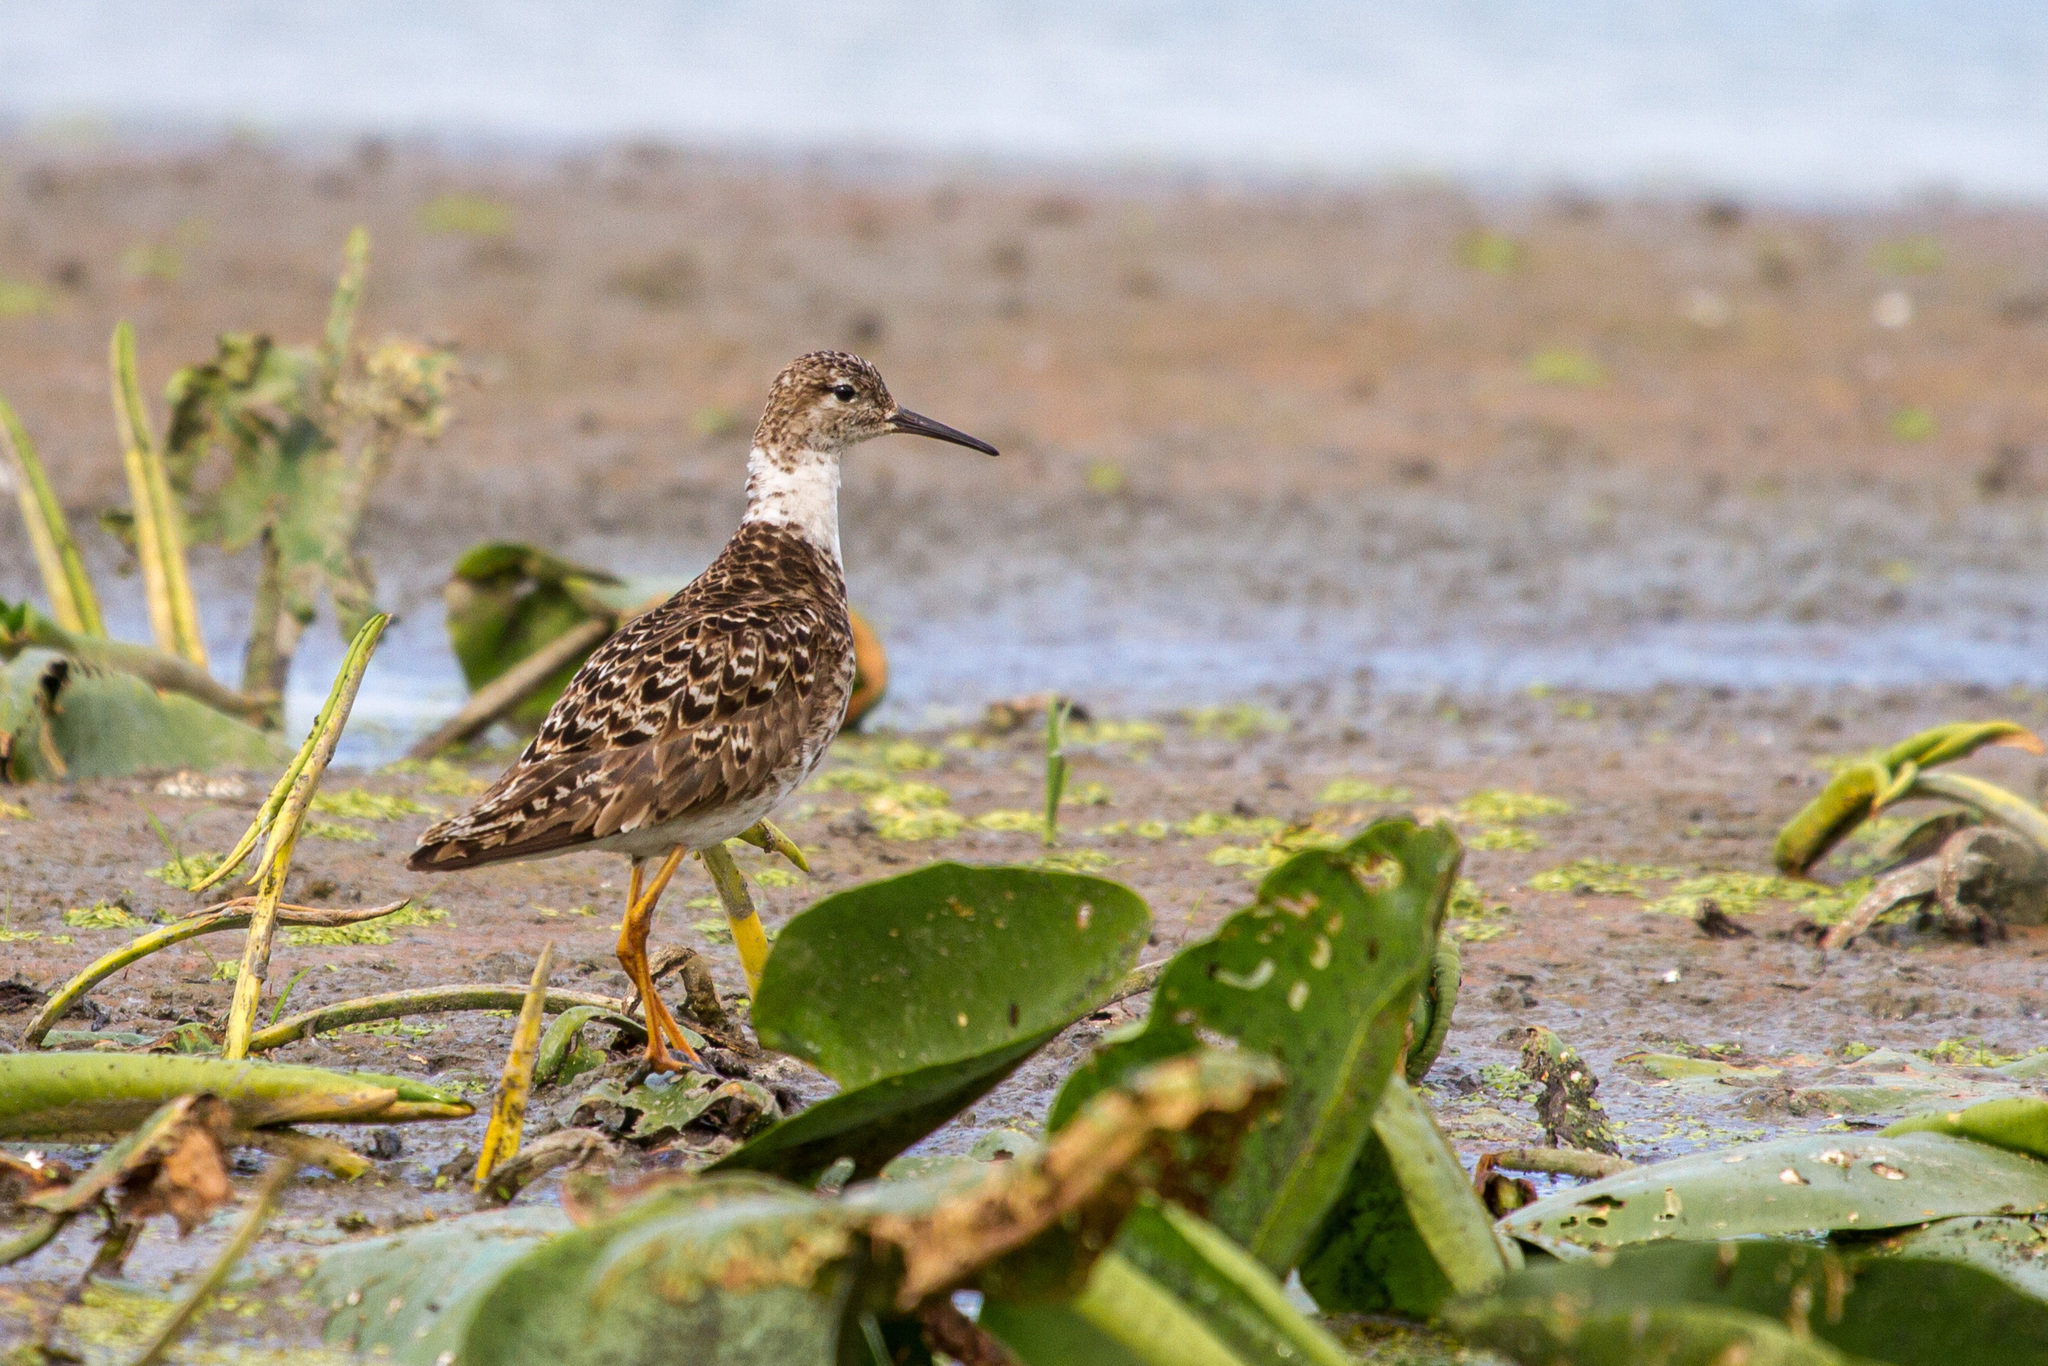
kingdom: Animalia
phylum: Chordata
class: Aves
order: Charadriiformes
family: Scolopacidae
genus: Calidris
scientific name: Calidris pugnax
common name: Ruff
